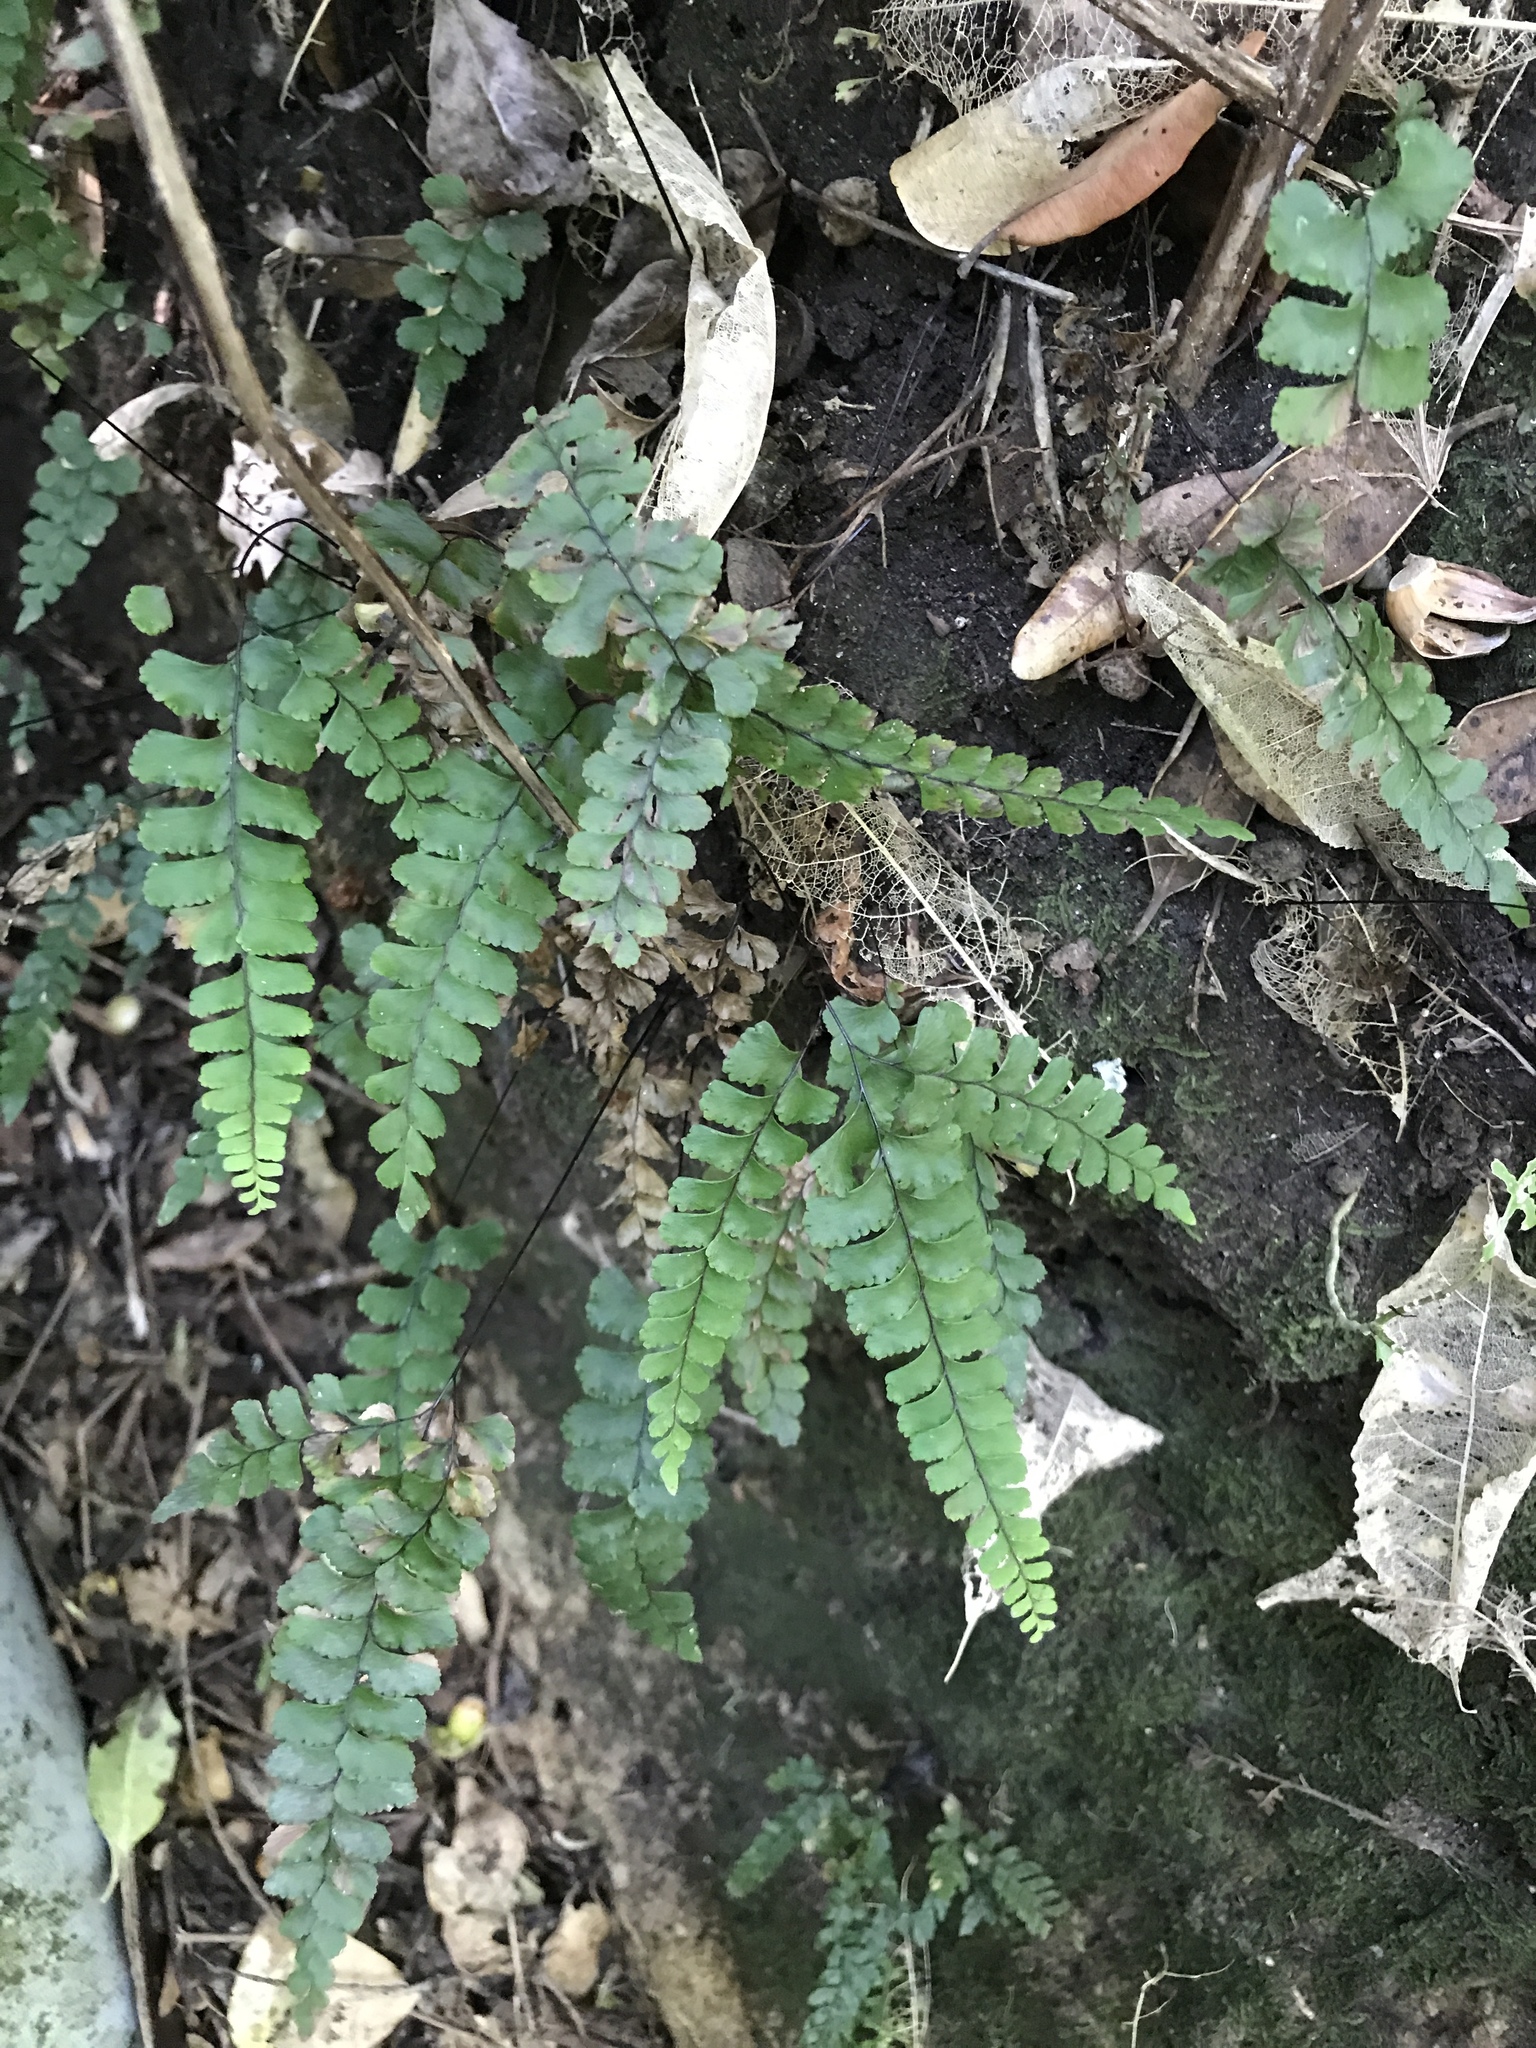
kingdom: Plantae
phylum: Tracheophyta
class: Polypodiopsida
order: Polypodiales
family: Pteridaceae
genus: Adiantum
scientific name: Adiantum diaphanum
